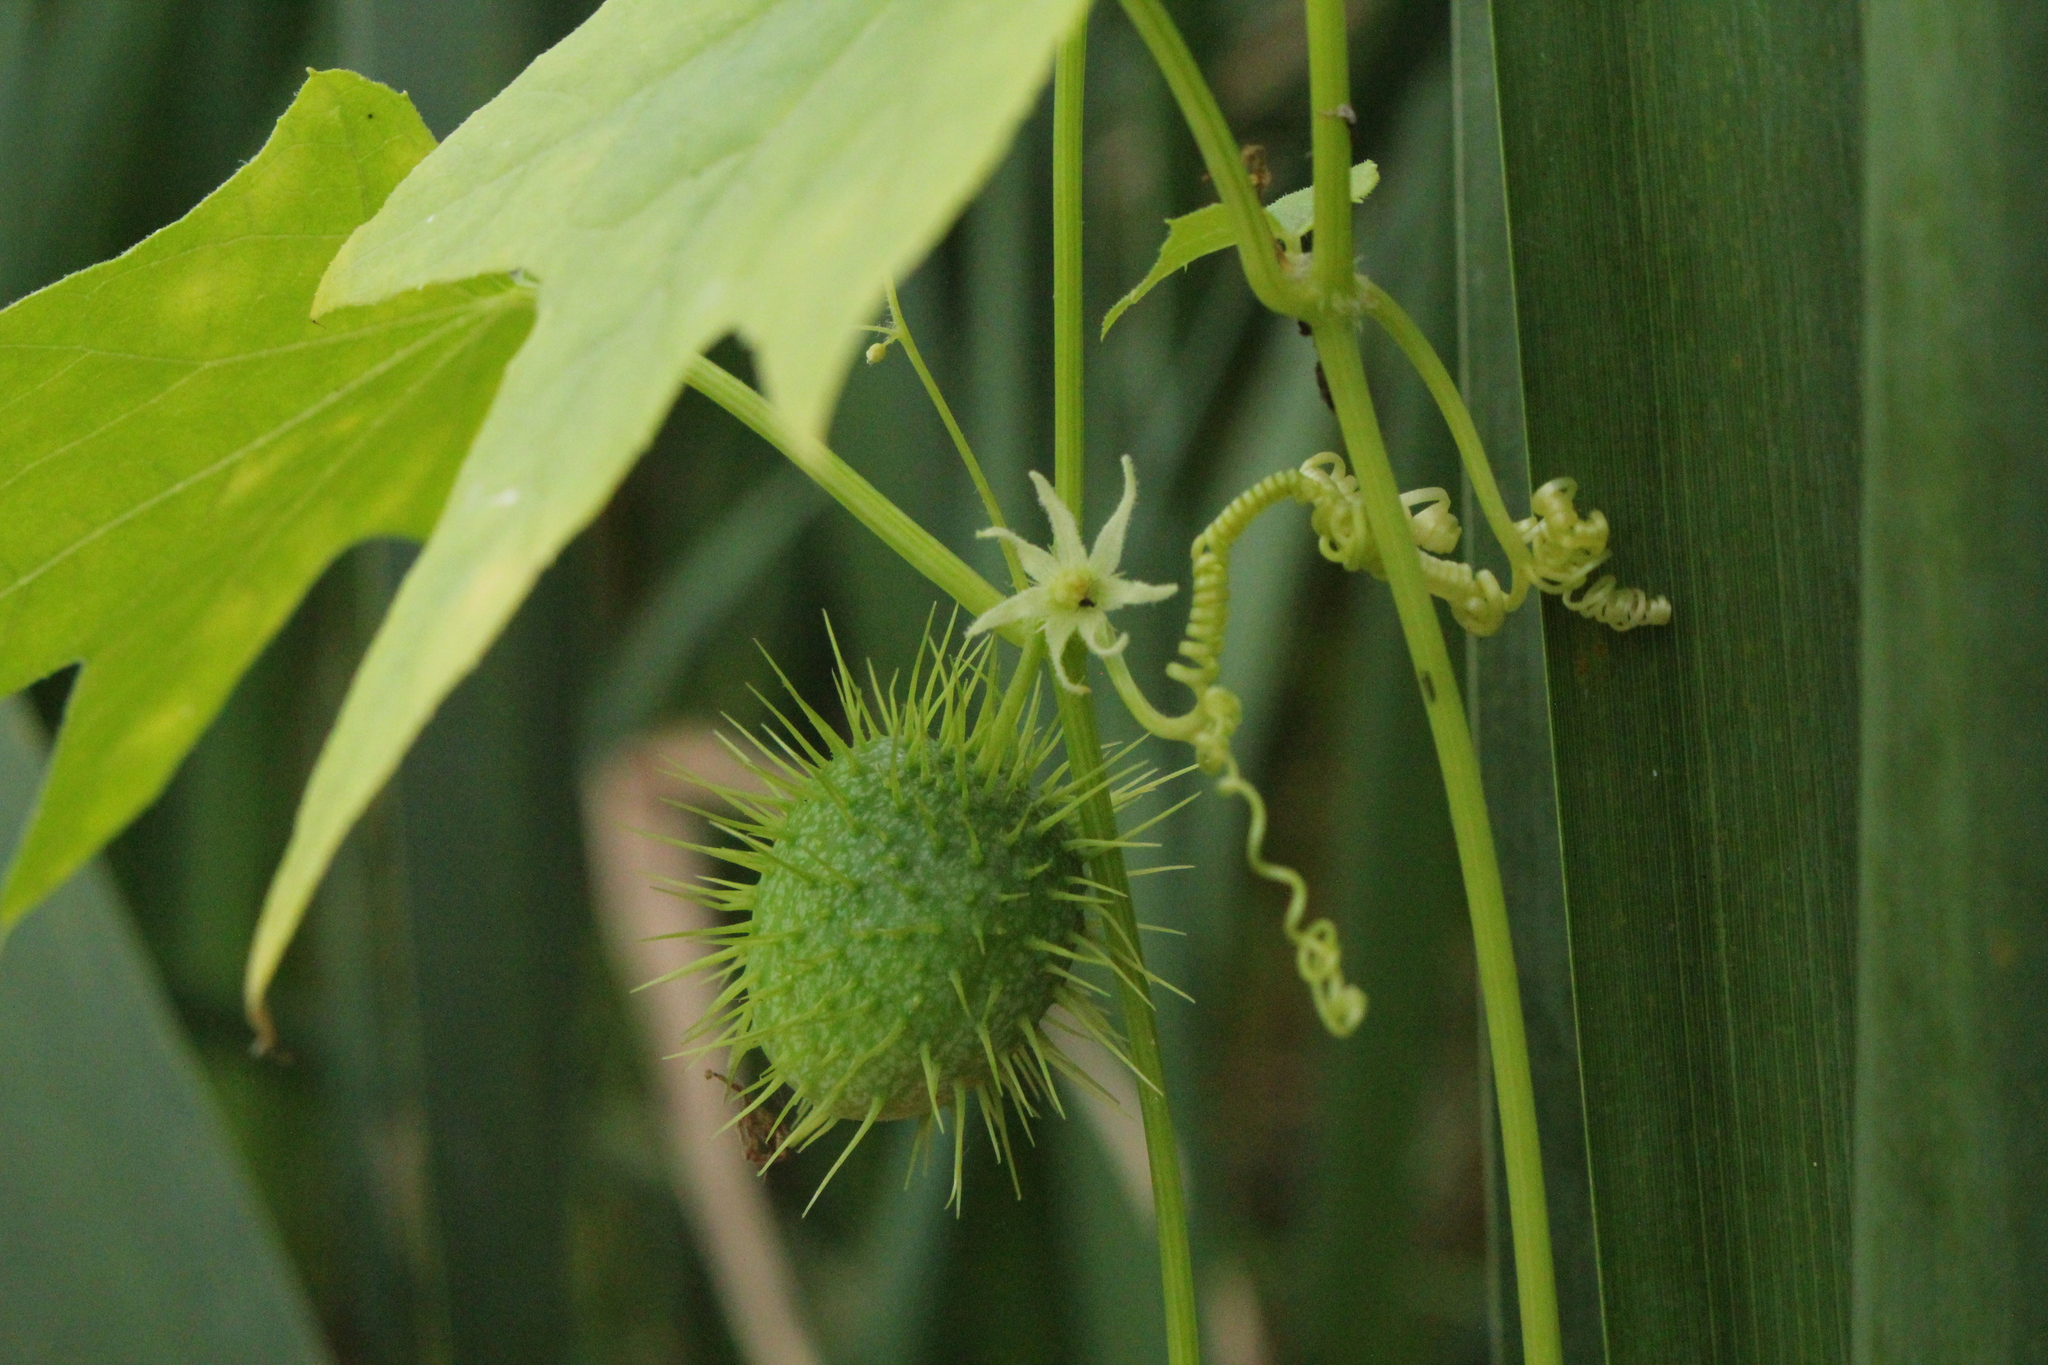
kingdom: Plantae
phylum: Tracheophyta
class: Magnoliopsida
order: Cucurbitales
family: Cucurbitaceae
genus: Echinocystis
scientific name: Echinocystis lobata
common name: Wild cucumber
